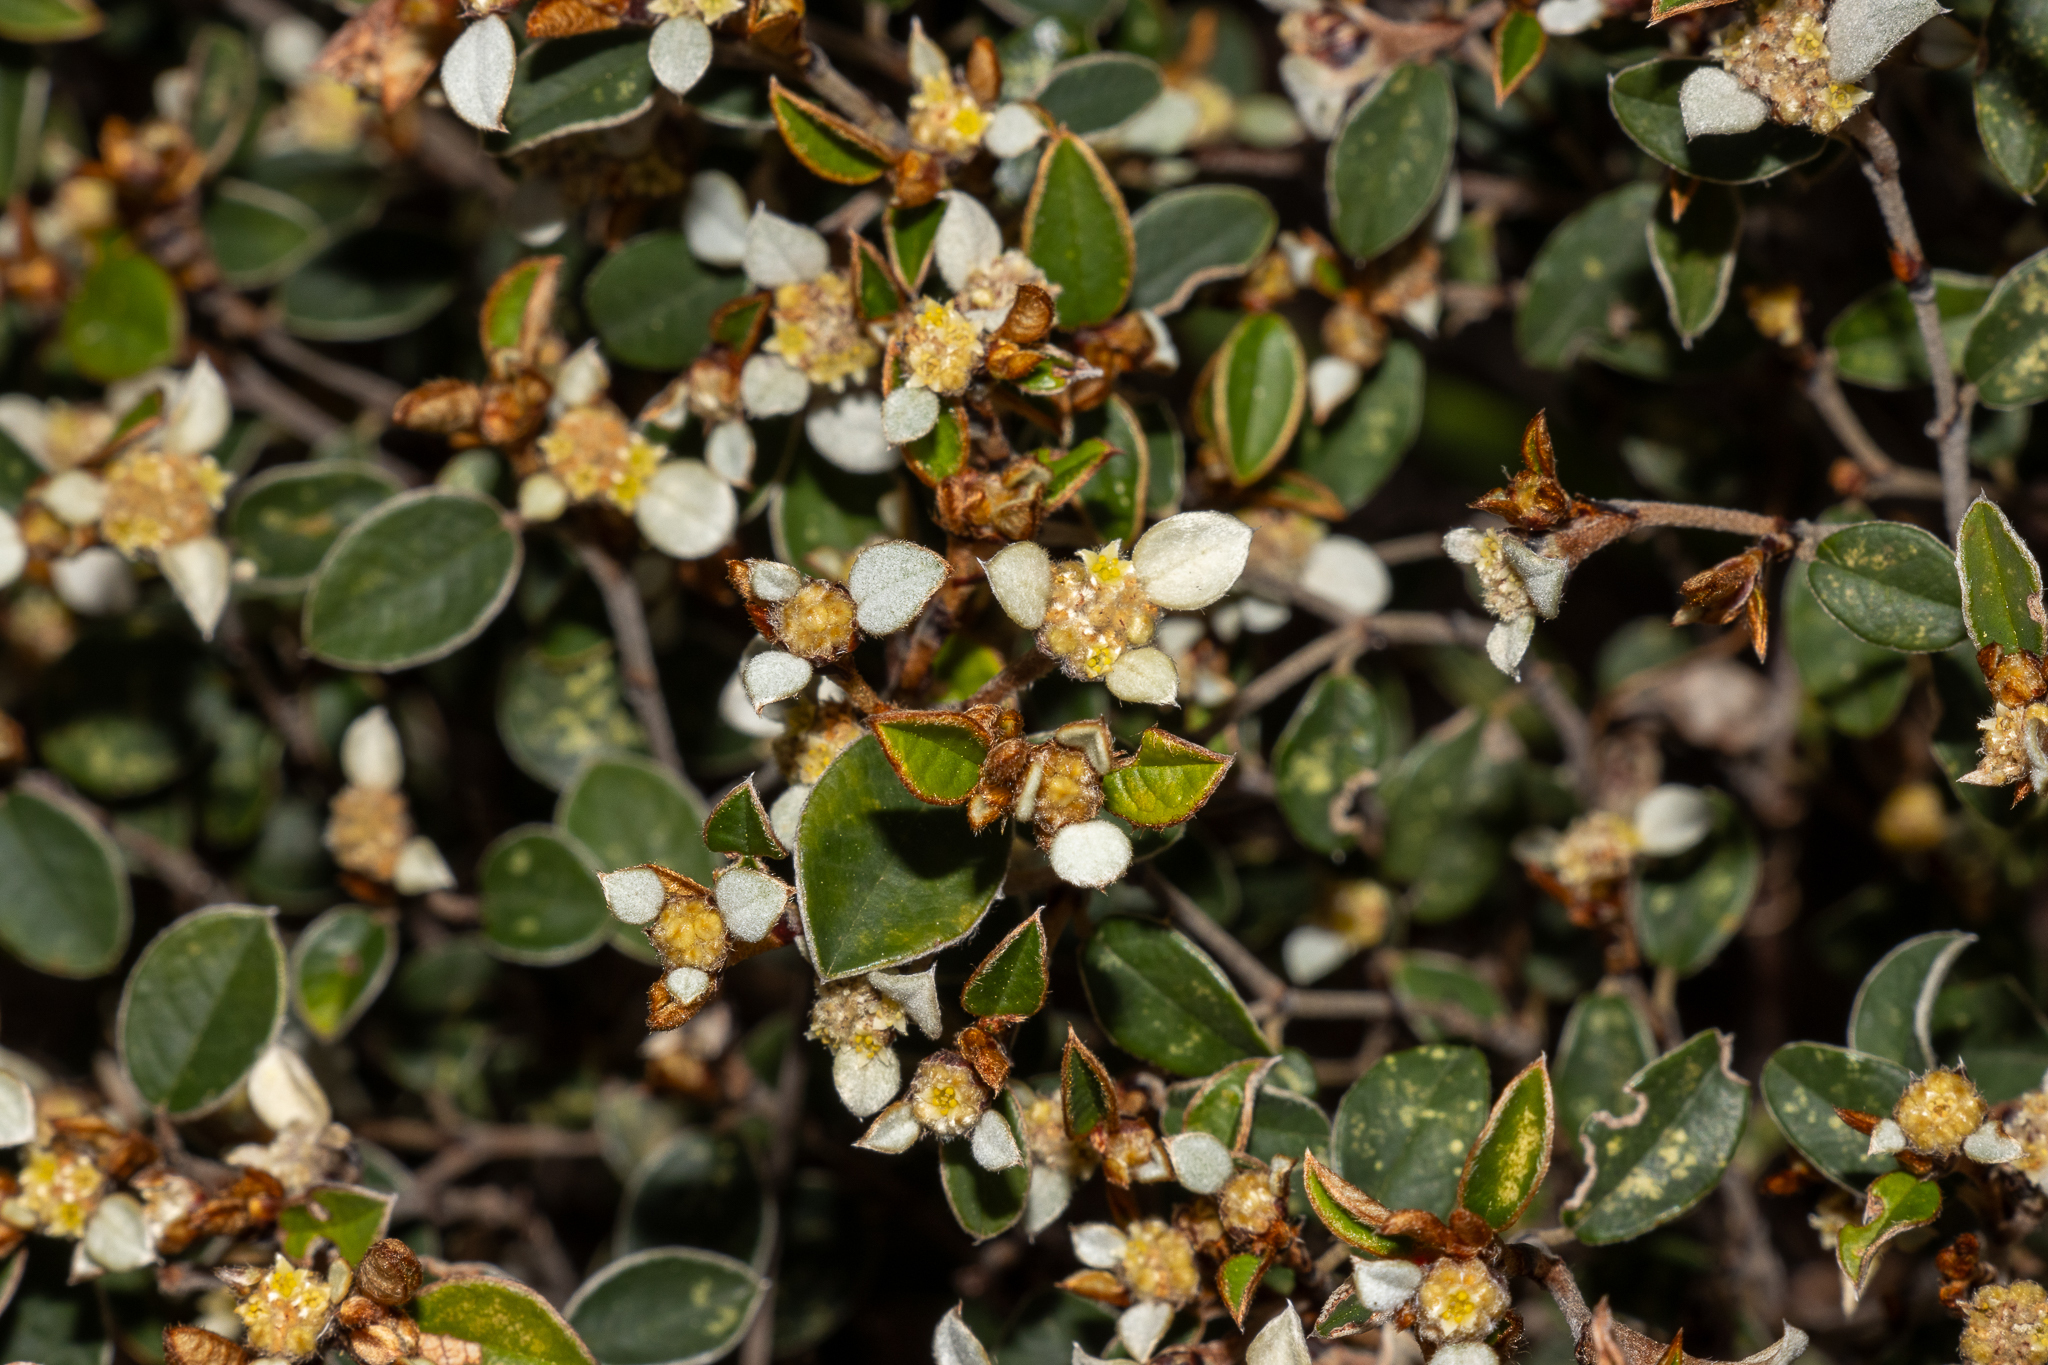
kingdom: Plantae
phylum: Tracheophyta
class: Magnoliopsida
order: Rosales
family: Rhamnaceae
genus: Spyridium
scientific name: Spyridium thymifolium
